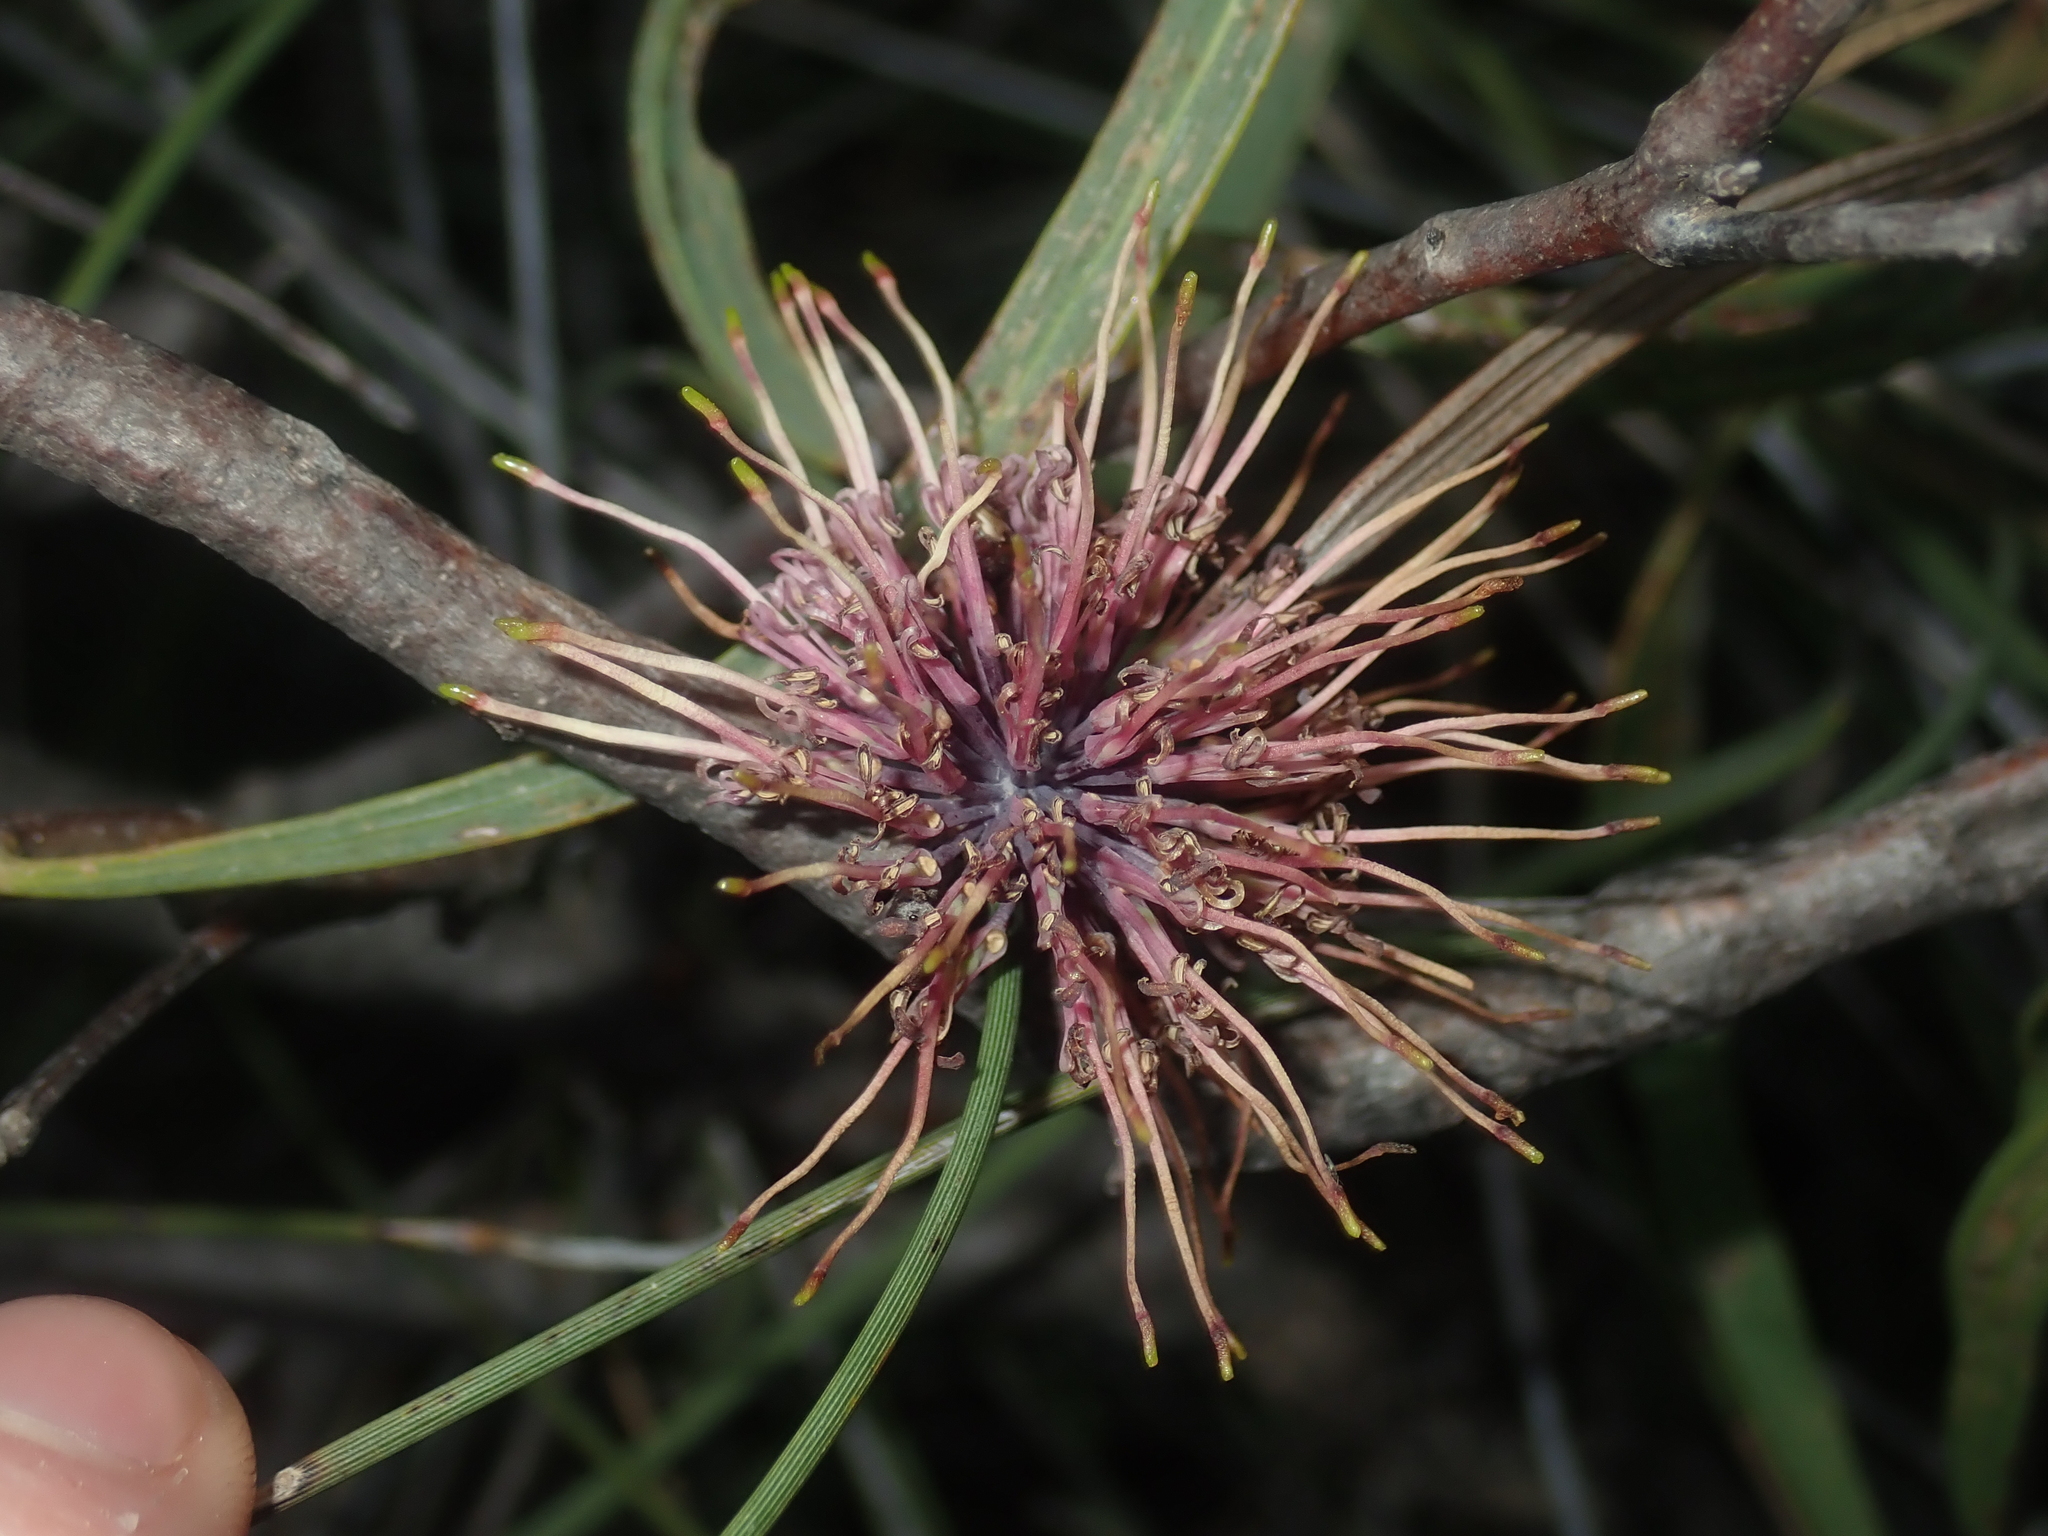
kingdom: Plantae
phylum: Tracheophyta
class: Magnoliopsida
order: Proteales
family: Proteaceae
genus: Hakea
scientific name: Hakea pycnoneura
